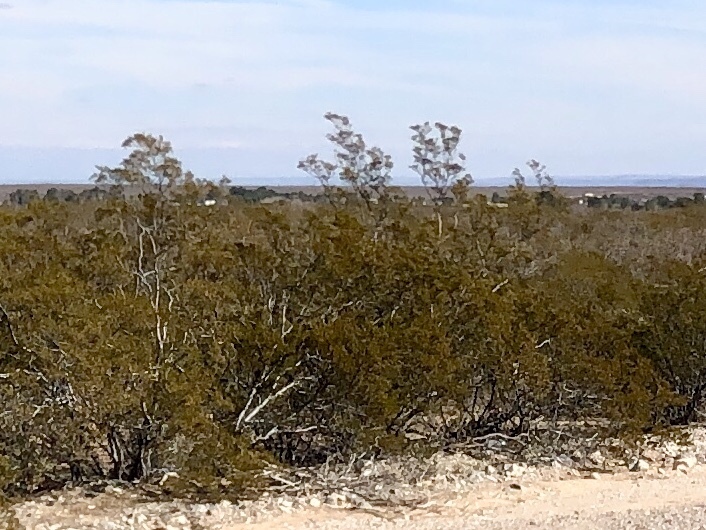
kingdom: Plantae
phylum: Tracheophyta
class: Magnoliopsida
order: Zygophyllales
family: Zygophyllaceae
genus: Larrea
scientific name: Larrea tridentata
